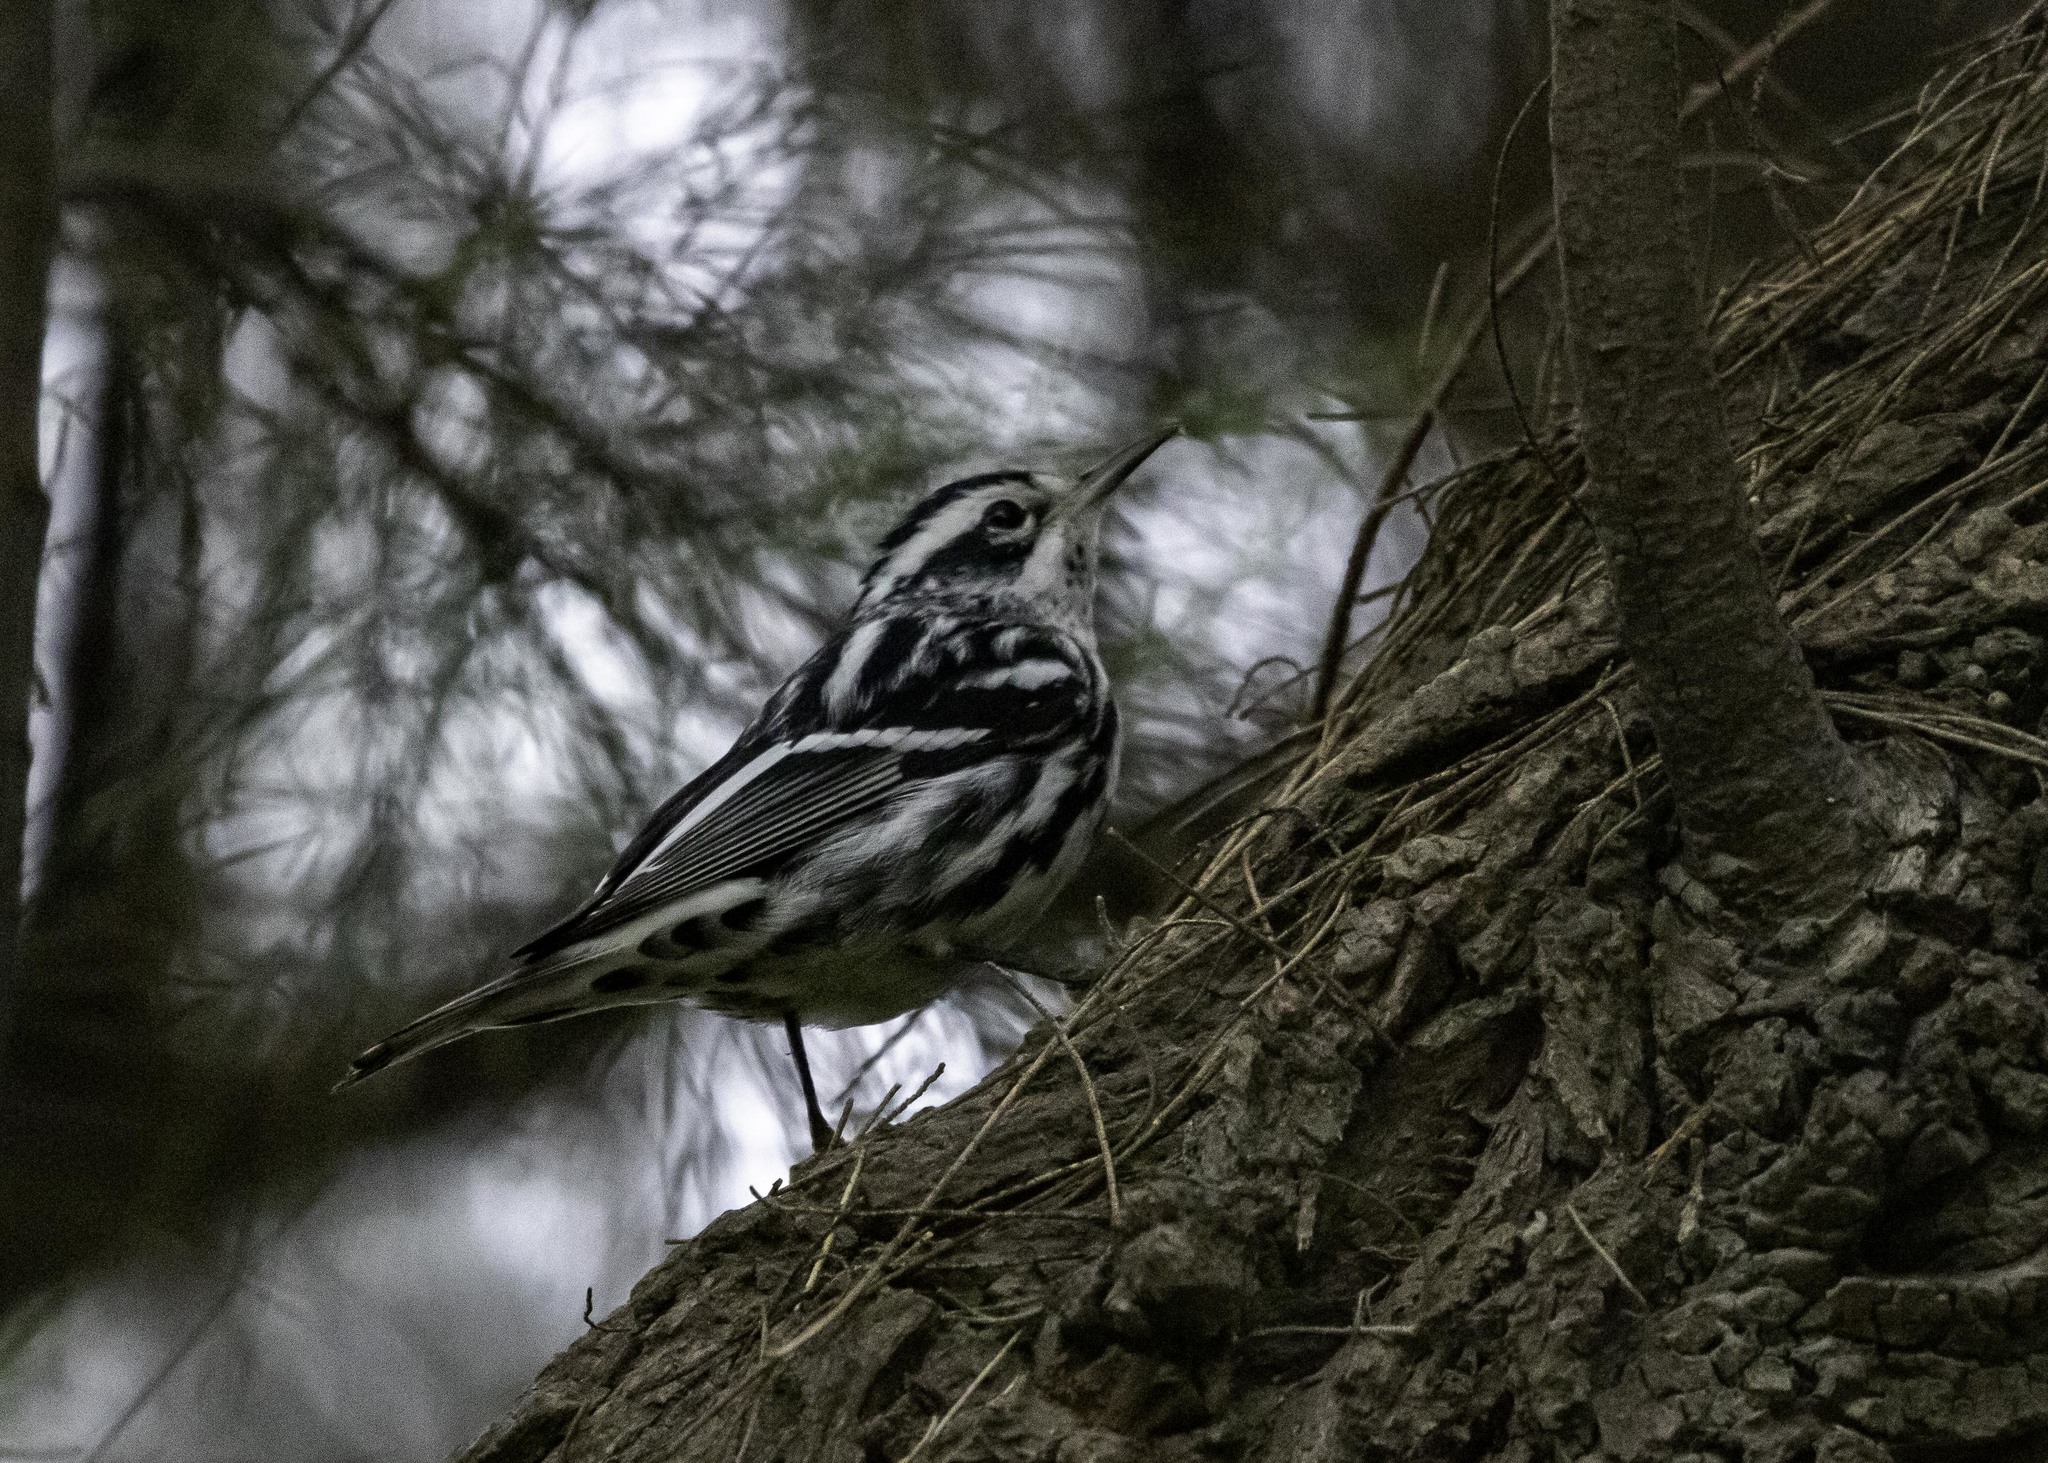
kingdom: Animalia
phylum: Chordata
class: Aves
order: Passeriformes
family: Parulidae
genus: Mniotilta
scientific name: Mniotilta varia
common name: Black-and-white warbler
